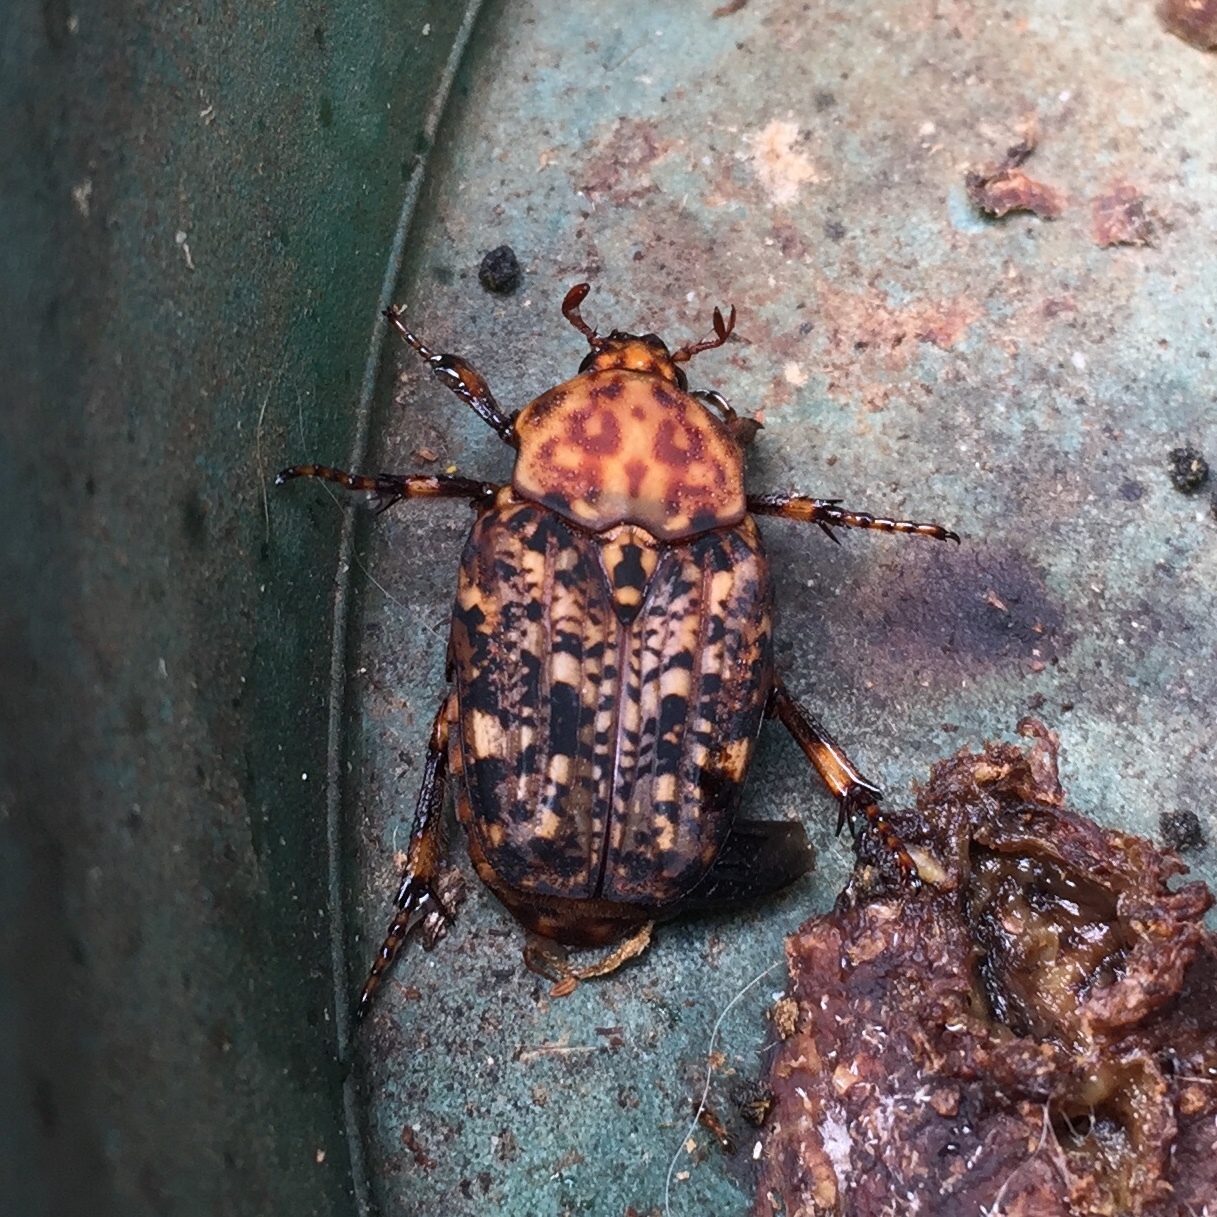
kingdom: Animalia
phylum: Arthropoda
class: Insecta
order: Coleoptera
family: Scarabaeidae
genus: Porphyronota
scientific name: Porphyronota maculatissima
